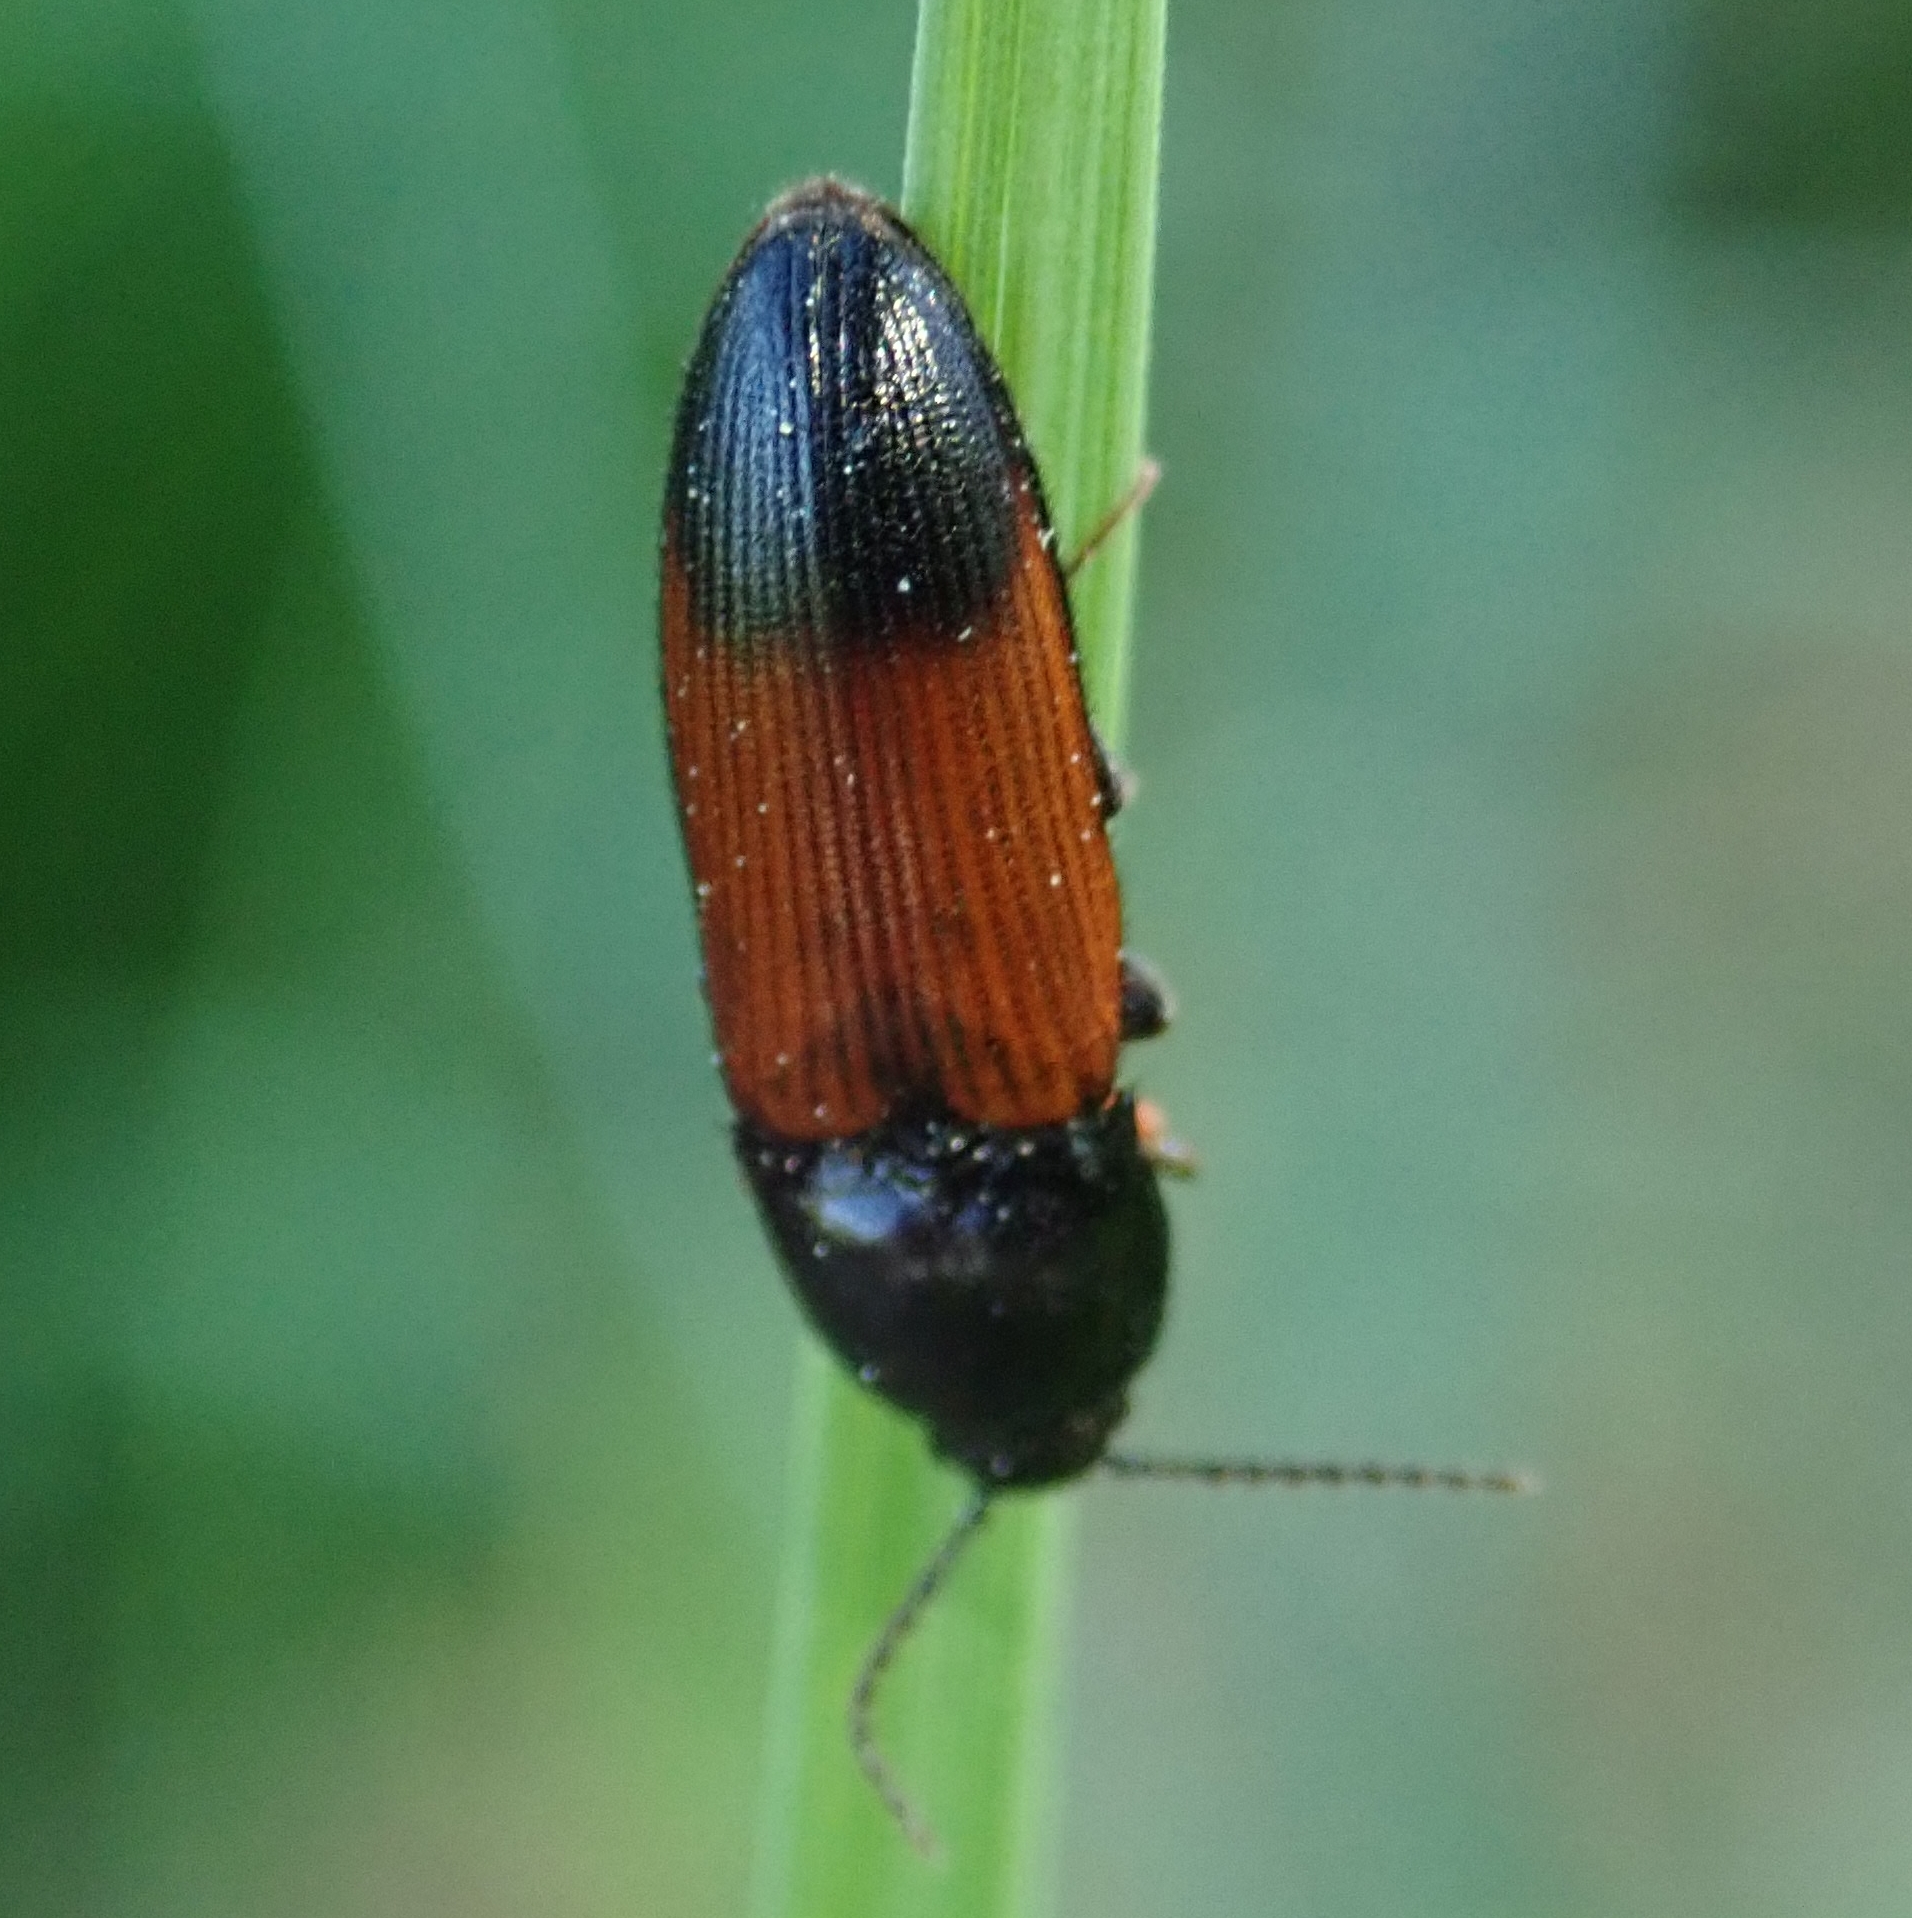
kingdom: Animalia
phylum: Arthropoda
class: Insecta
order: Coleoptera
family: Elateridae
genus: Ampedus
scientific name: Ampedus balteatus
